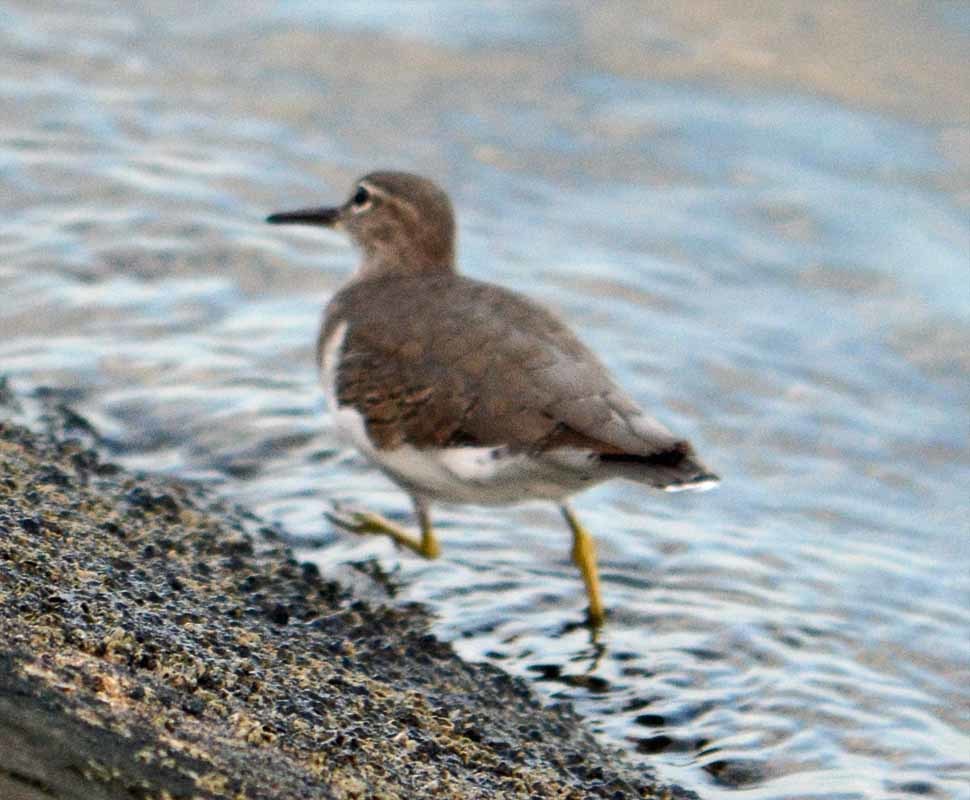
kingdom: Animalia
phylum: Chordata
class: Aves
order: Charadriiformes
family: Scolopacidae
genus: Actitis
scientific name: Actitis macularius
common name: Spotted sandpiper
